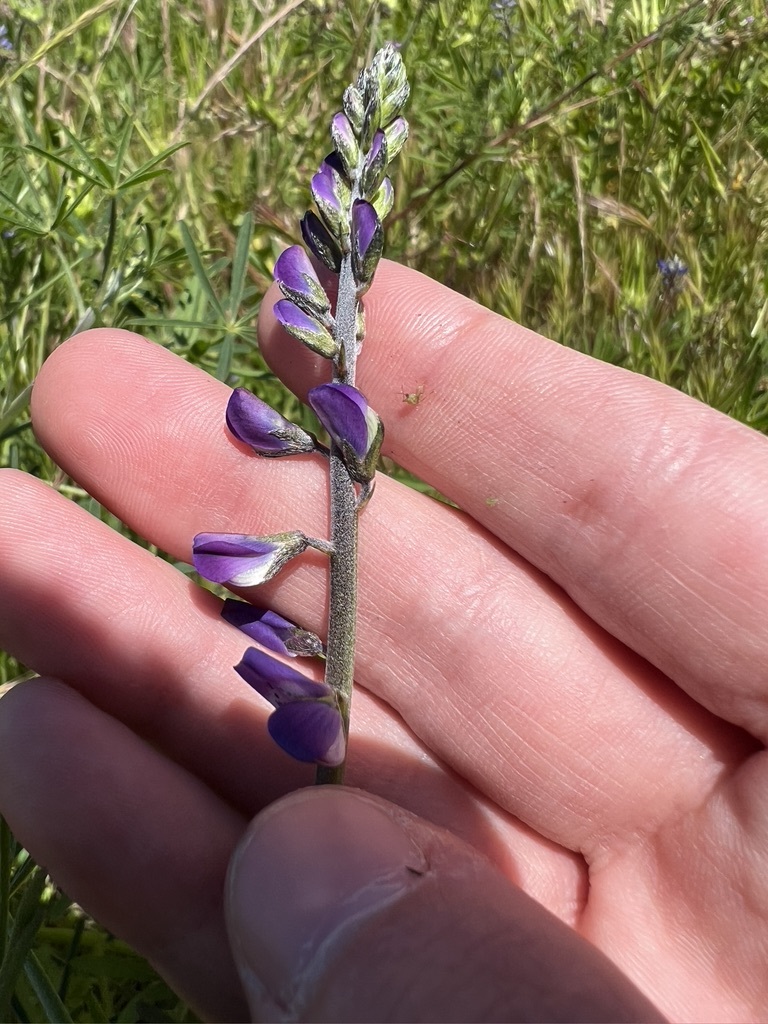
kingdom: Plantae
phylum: Tracheophyta
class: Magnoliopsida
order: Fabales
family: Fabaceae
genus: Lupinus
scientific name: Lupinus truncatus
